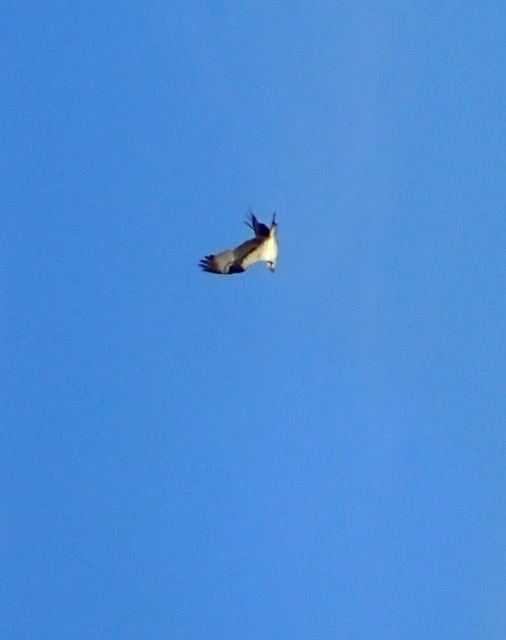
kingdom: Animalia
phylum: Chordata
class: Aves
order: Accipitriformes
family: Pandionidae
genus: Pandion
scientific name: Pandion haliaetus
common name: Osprey
